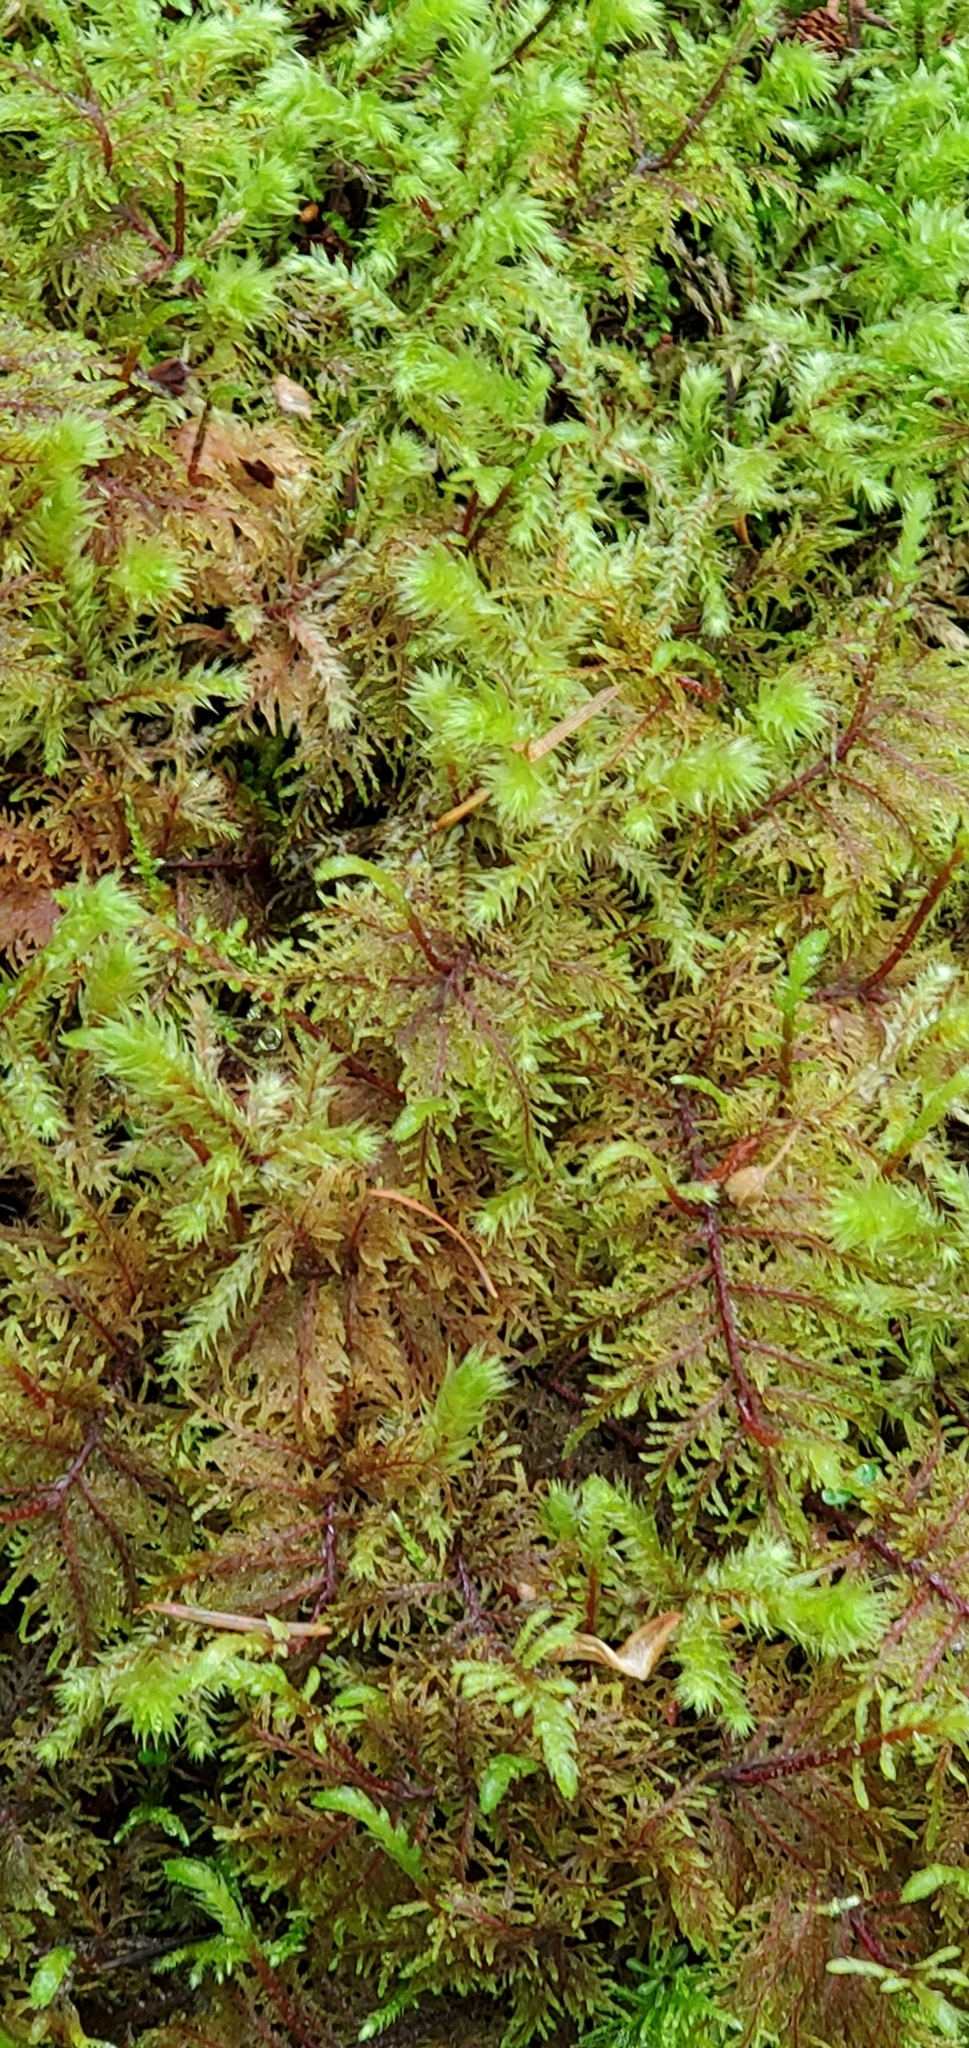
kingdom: Plantae
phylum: Bryophyta
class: Bryopsida
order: Hypnales
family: Hylocomiaceae
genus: Hylocomium
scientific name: Hylocomium splendens
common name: Stairstep moss
